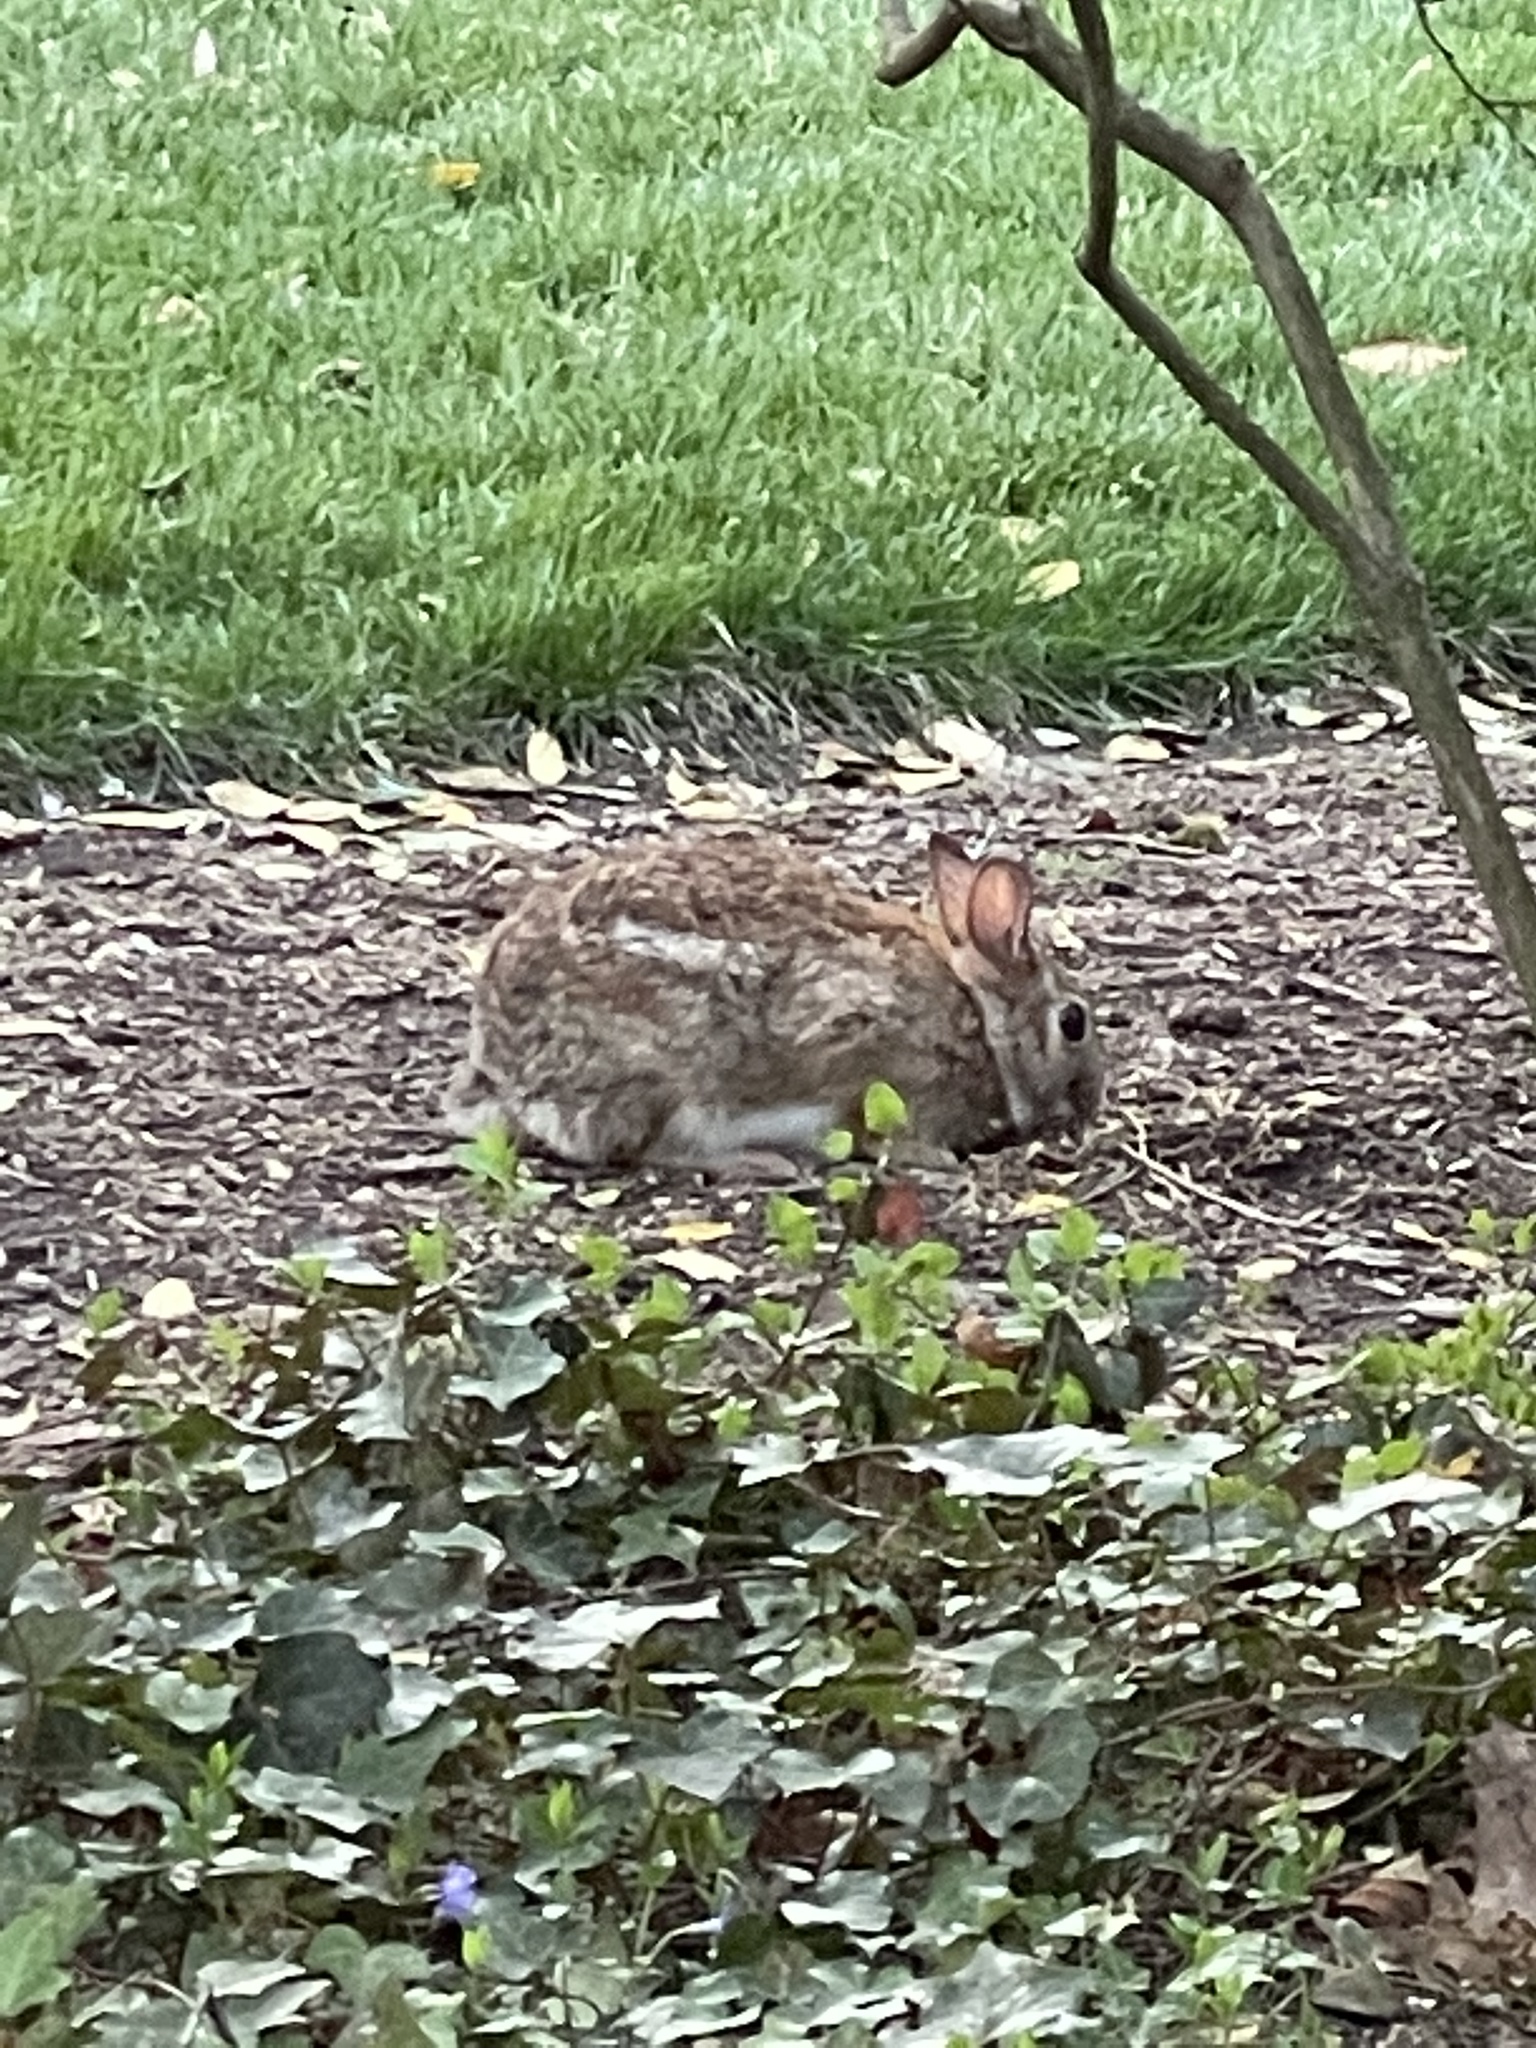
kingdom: Animalia
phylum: Chordata
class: Mammalia
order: Lagomorpha
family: Leporidae
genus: Sylvilagus
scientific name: Sylvilagus floridanus
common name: Eastern cottontail
